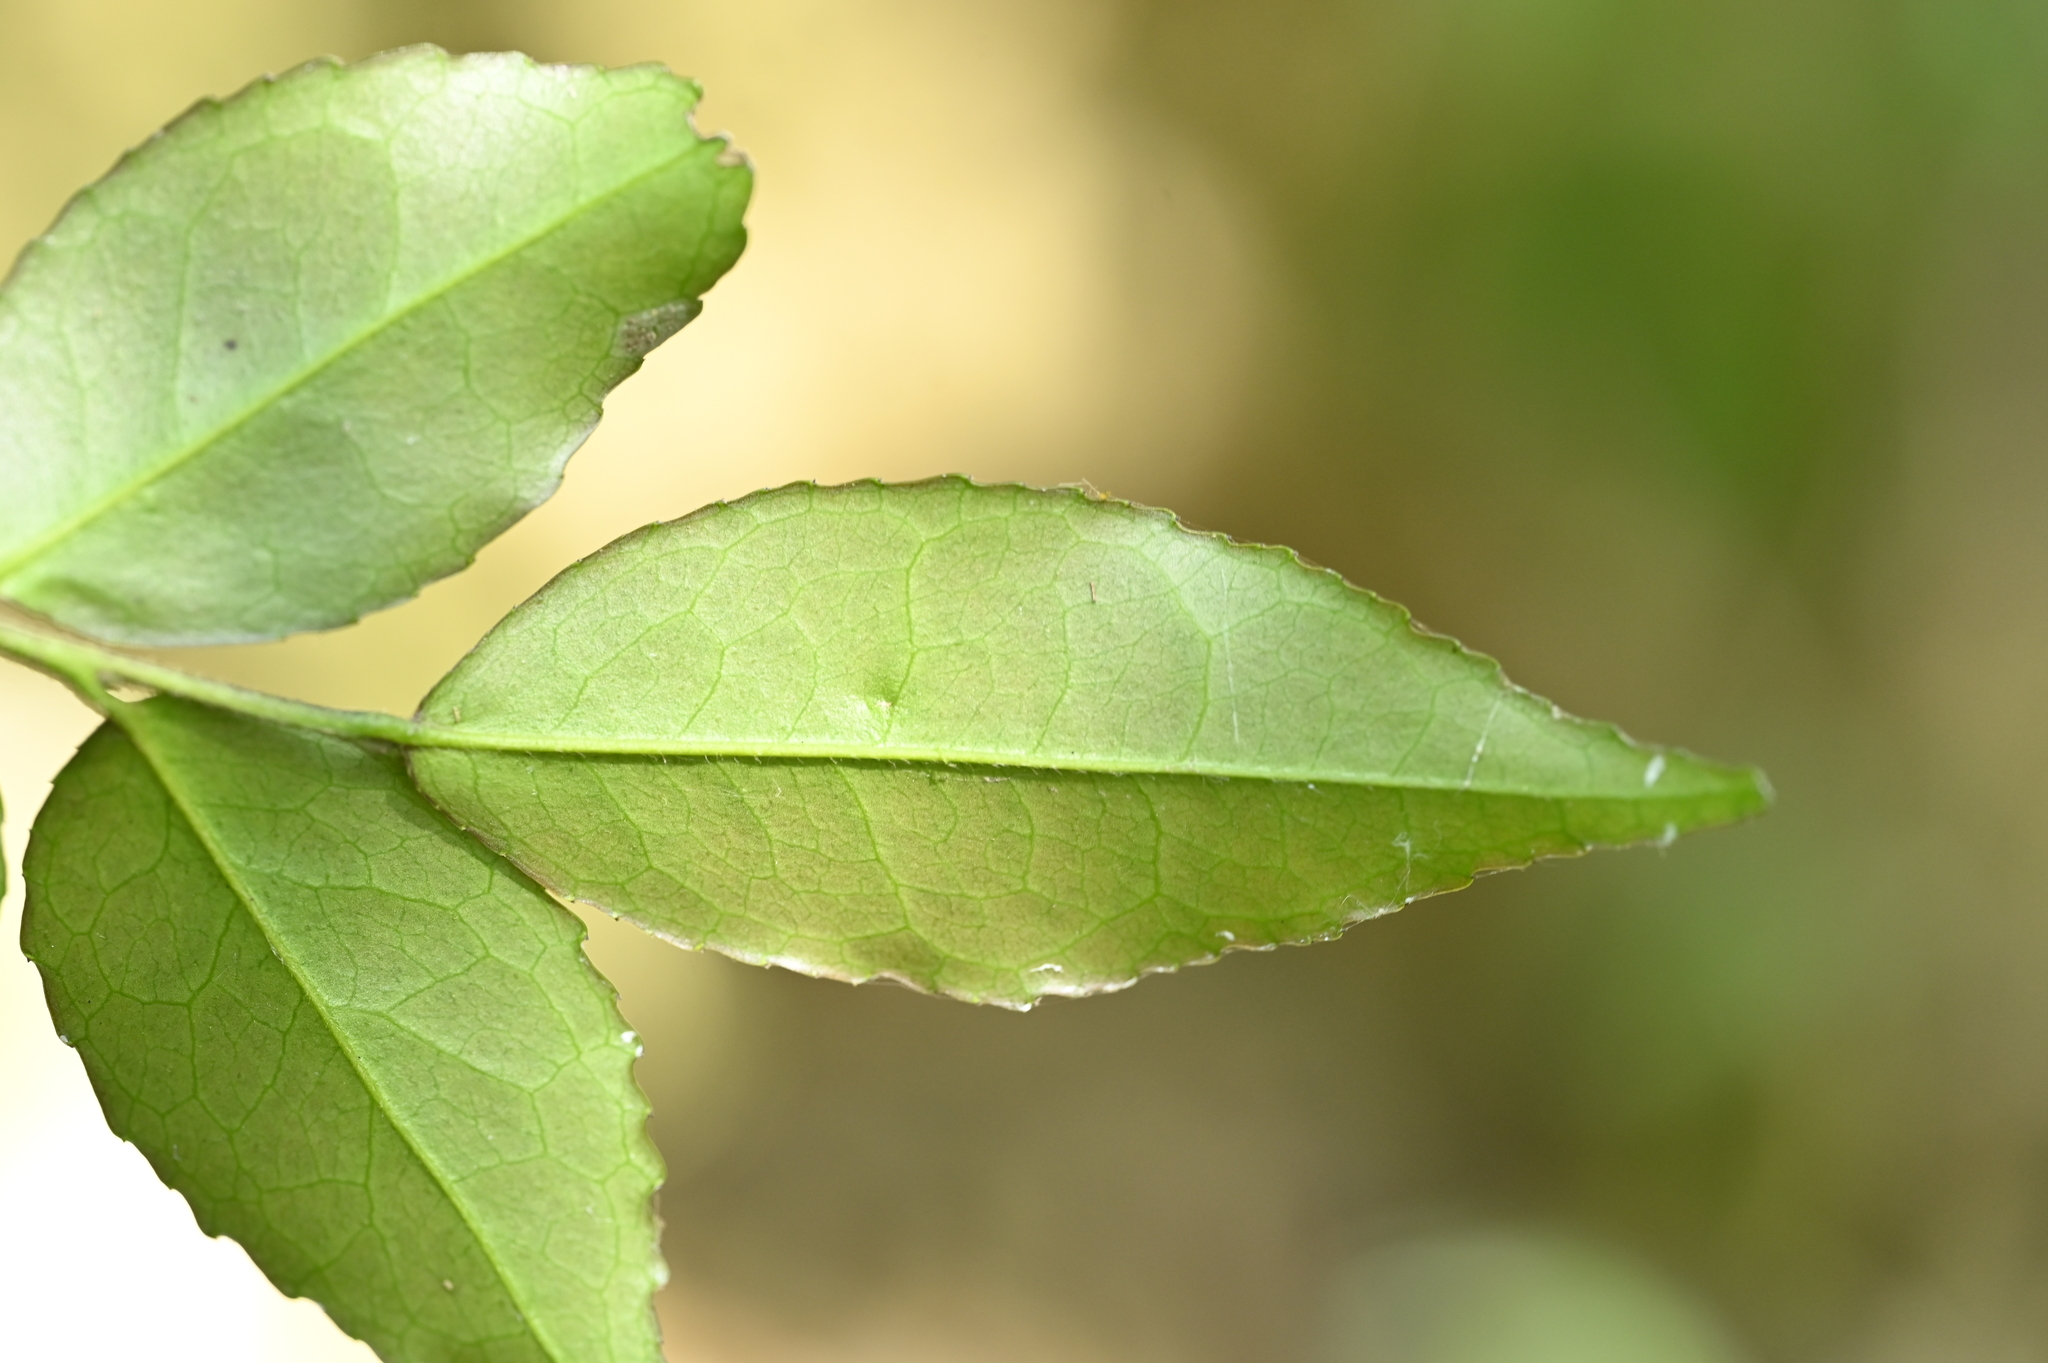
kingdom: Plantae
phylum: Tracheophyta
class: Magnoliopsida
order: Ericales
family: Pentaphylacaceae
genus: Eurya
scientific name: Eurya leptophylla
